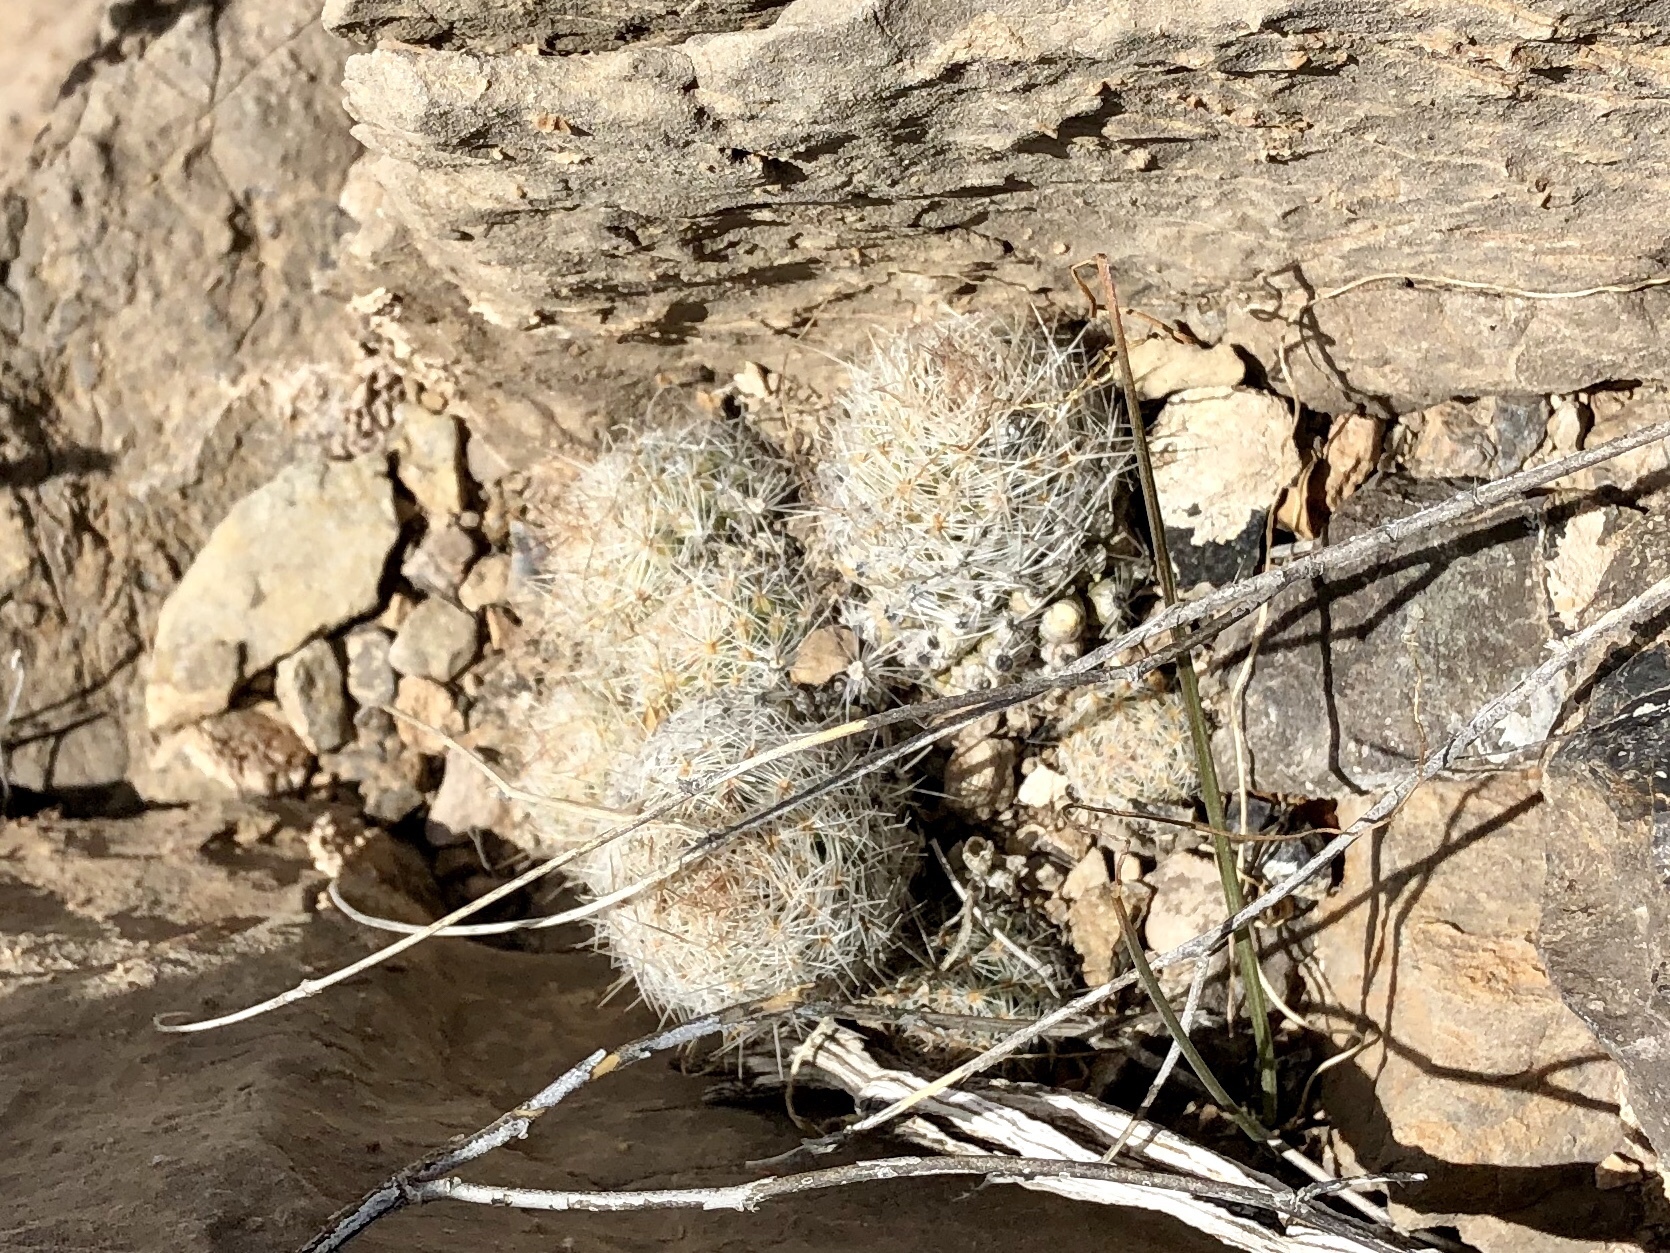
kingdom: Plantae
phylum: Tracheophyta
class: Magnoliopsida
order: Caryophyllales
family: Cactaceae
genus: Pelecyphora
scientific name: Pelecyphora tuberculosa
